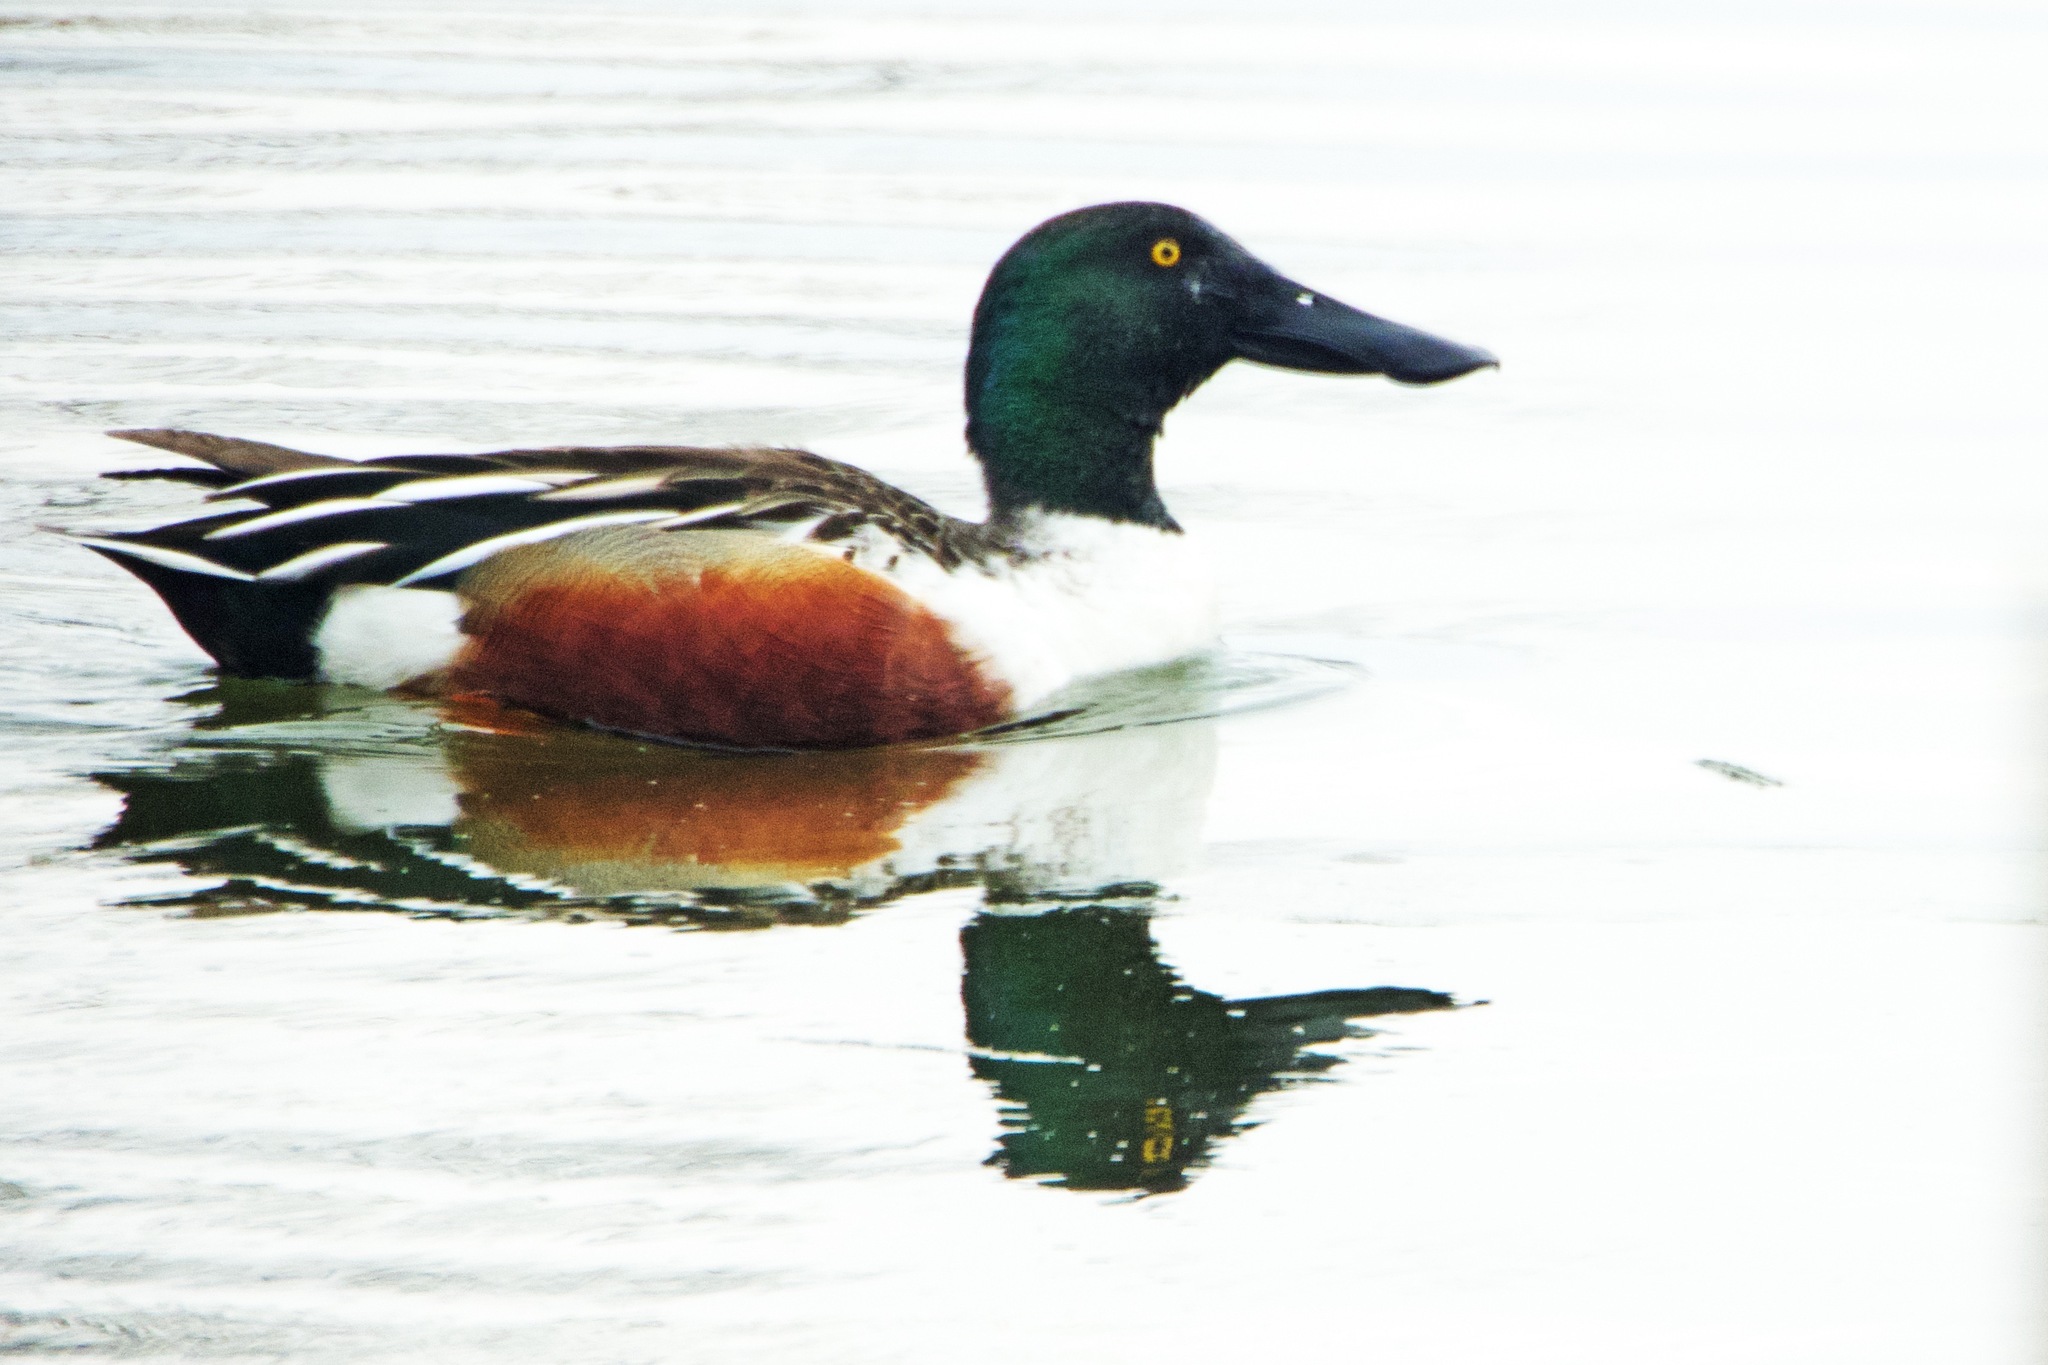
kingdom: Animalia
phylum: Chordata
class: Aves
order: Anseriformes
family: Anatidae
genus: Spatula
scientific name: Spatula clypeata
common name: Northern shoveler
